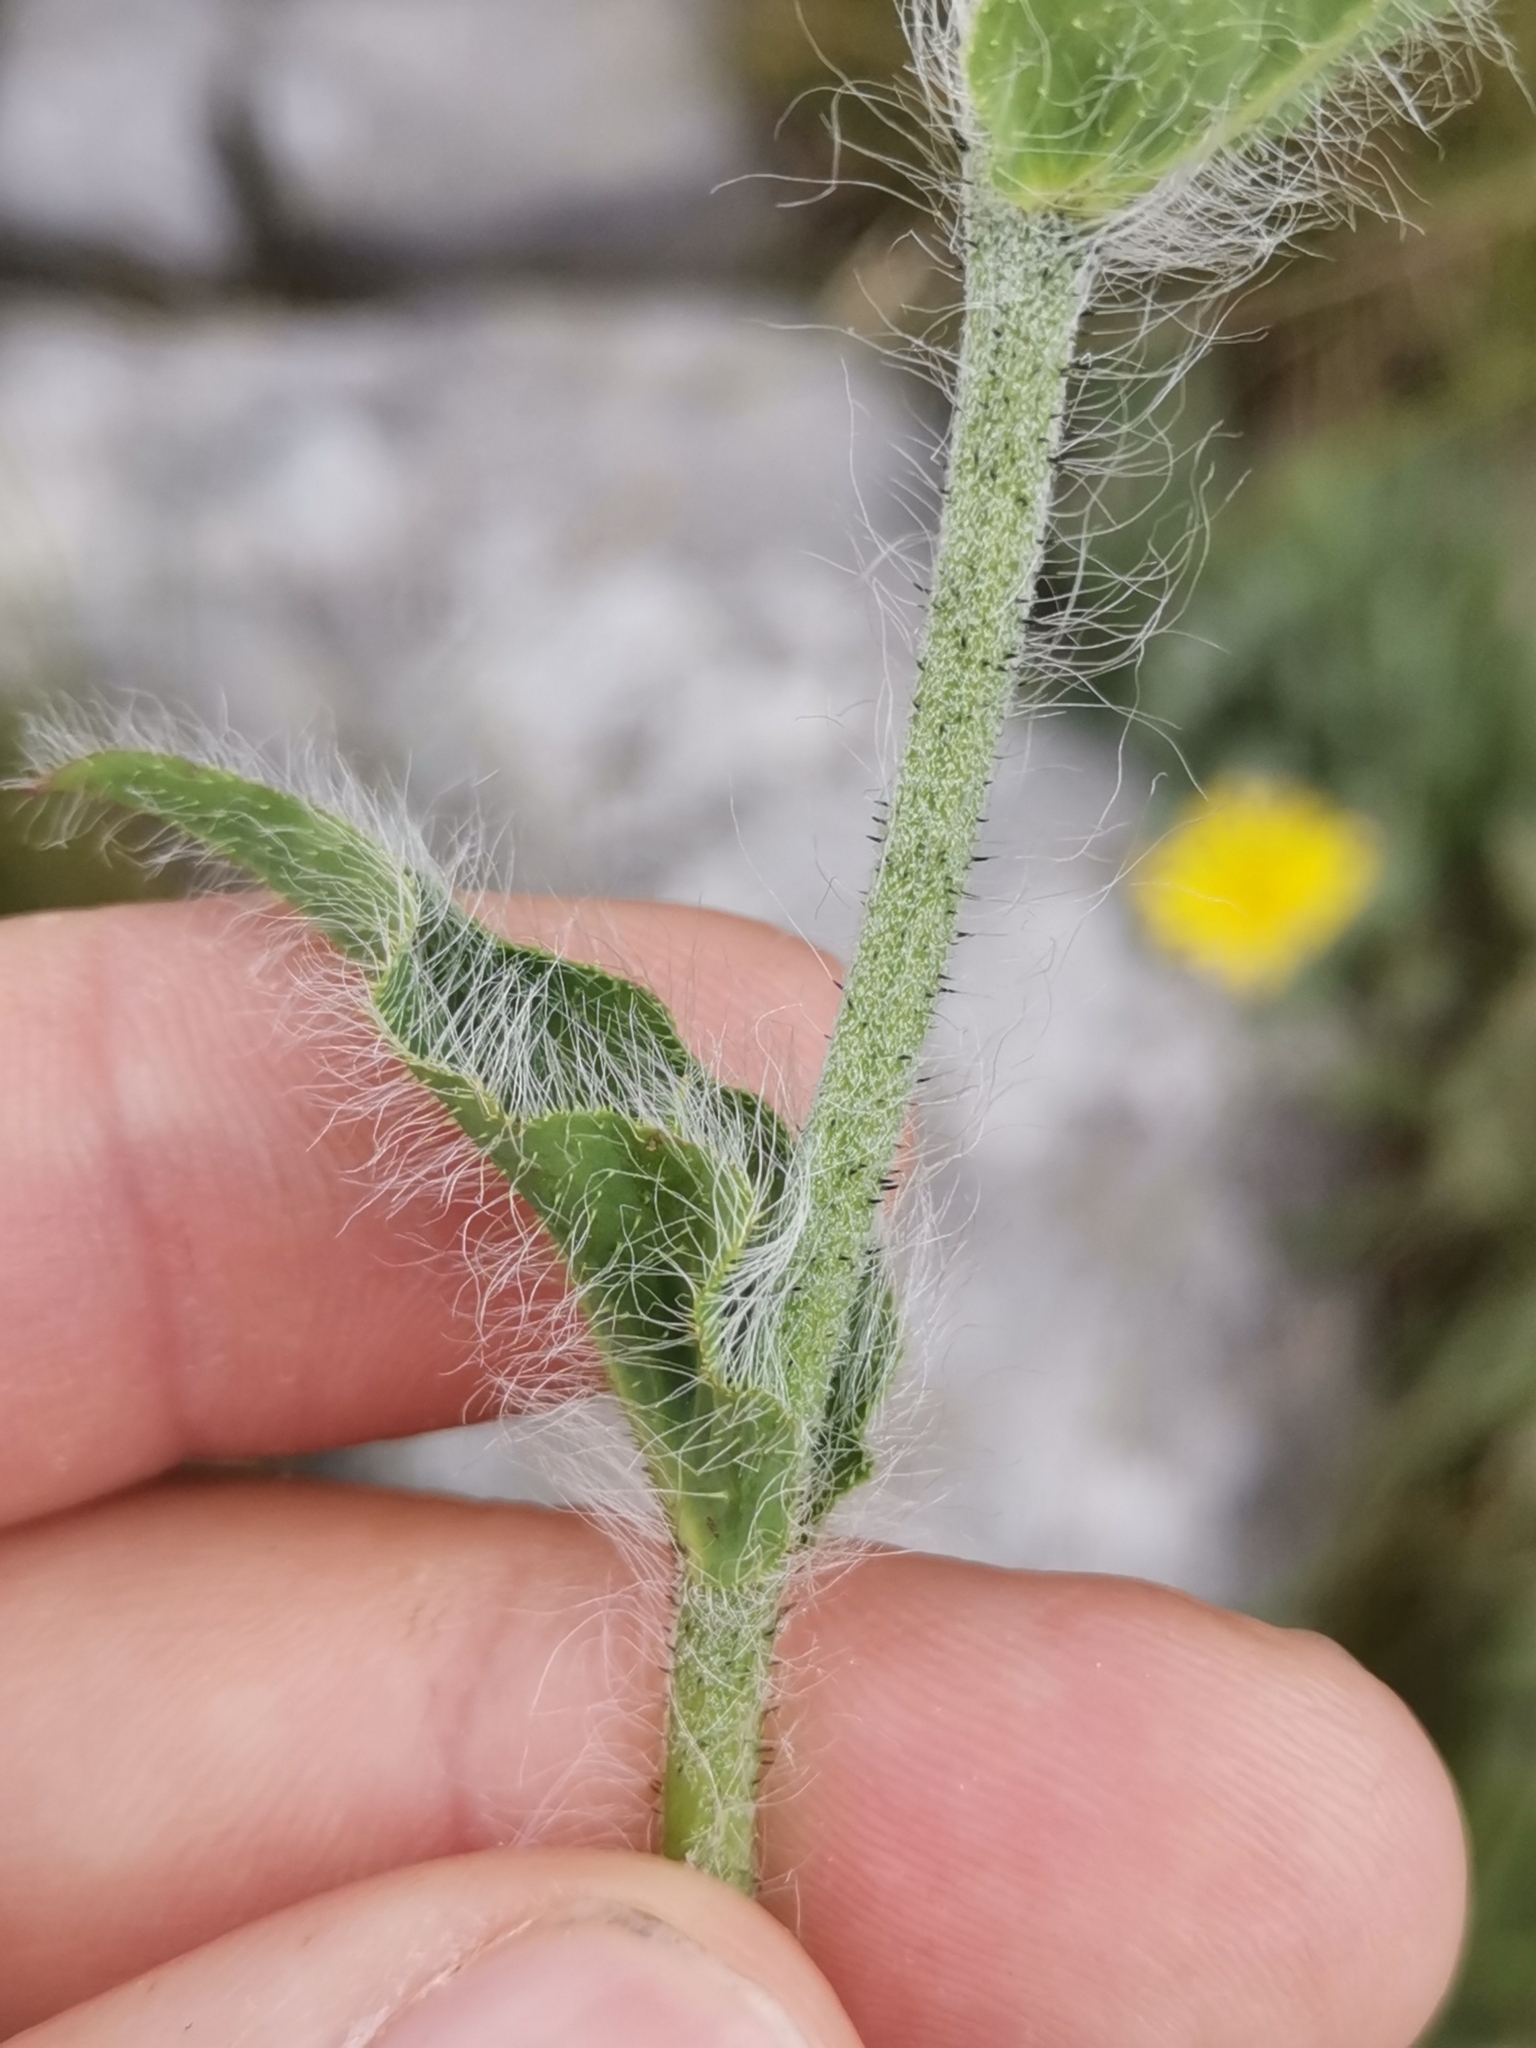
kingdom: Plantae
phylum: Tracheophyta
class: Magnoliopsida
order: Asterales
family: Asteraceae
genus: Hieracium
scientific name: Hieracium villosum
